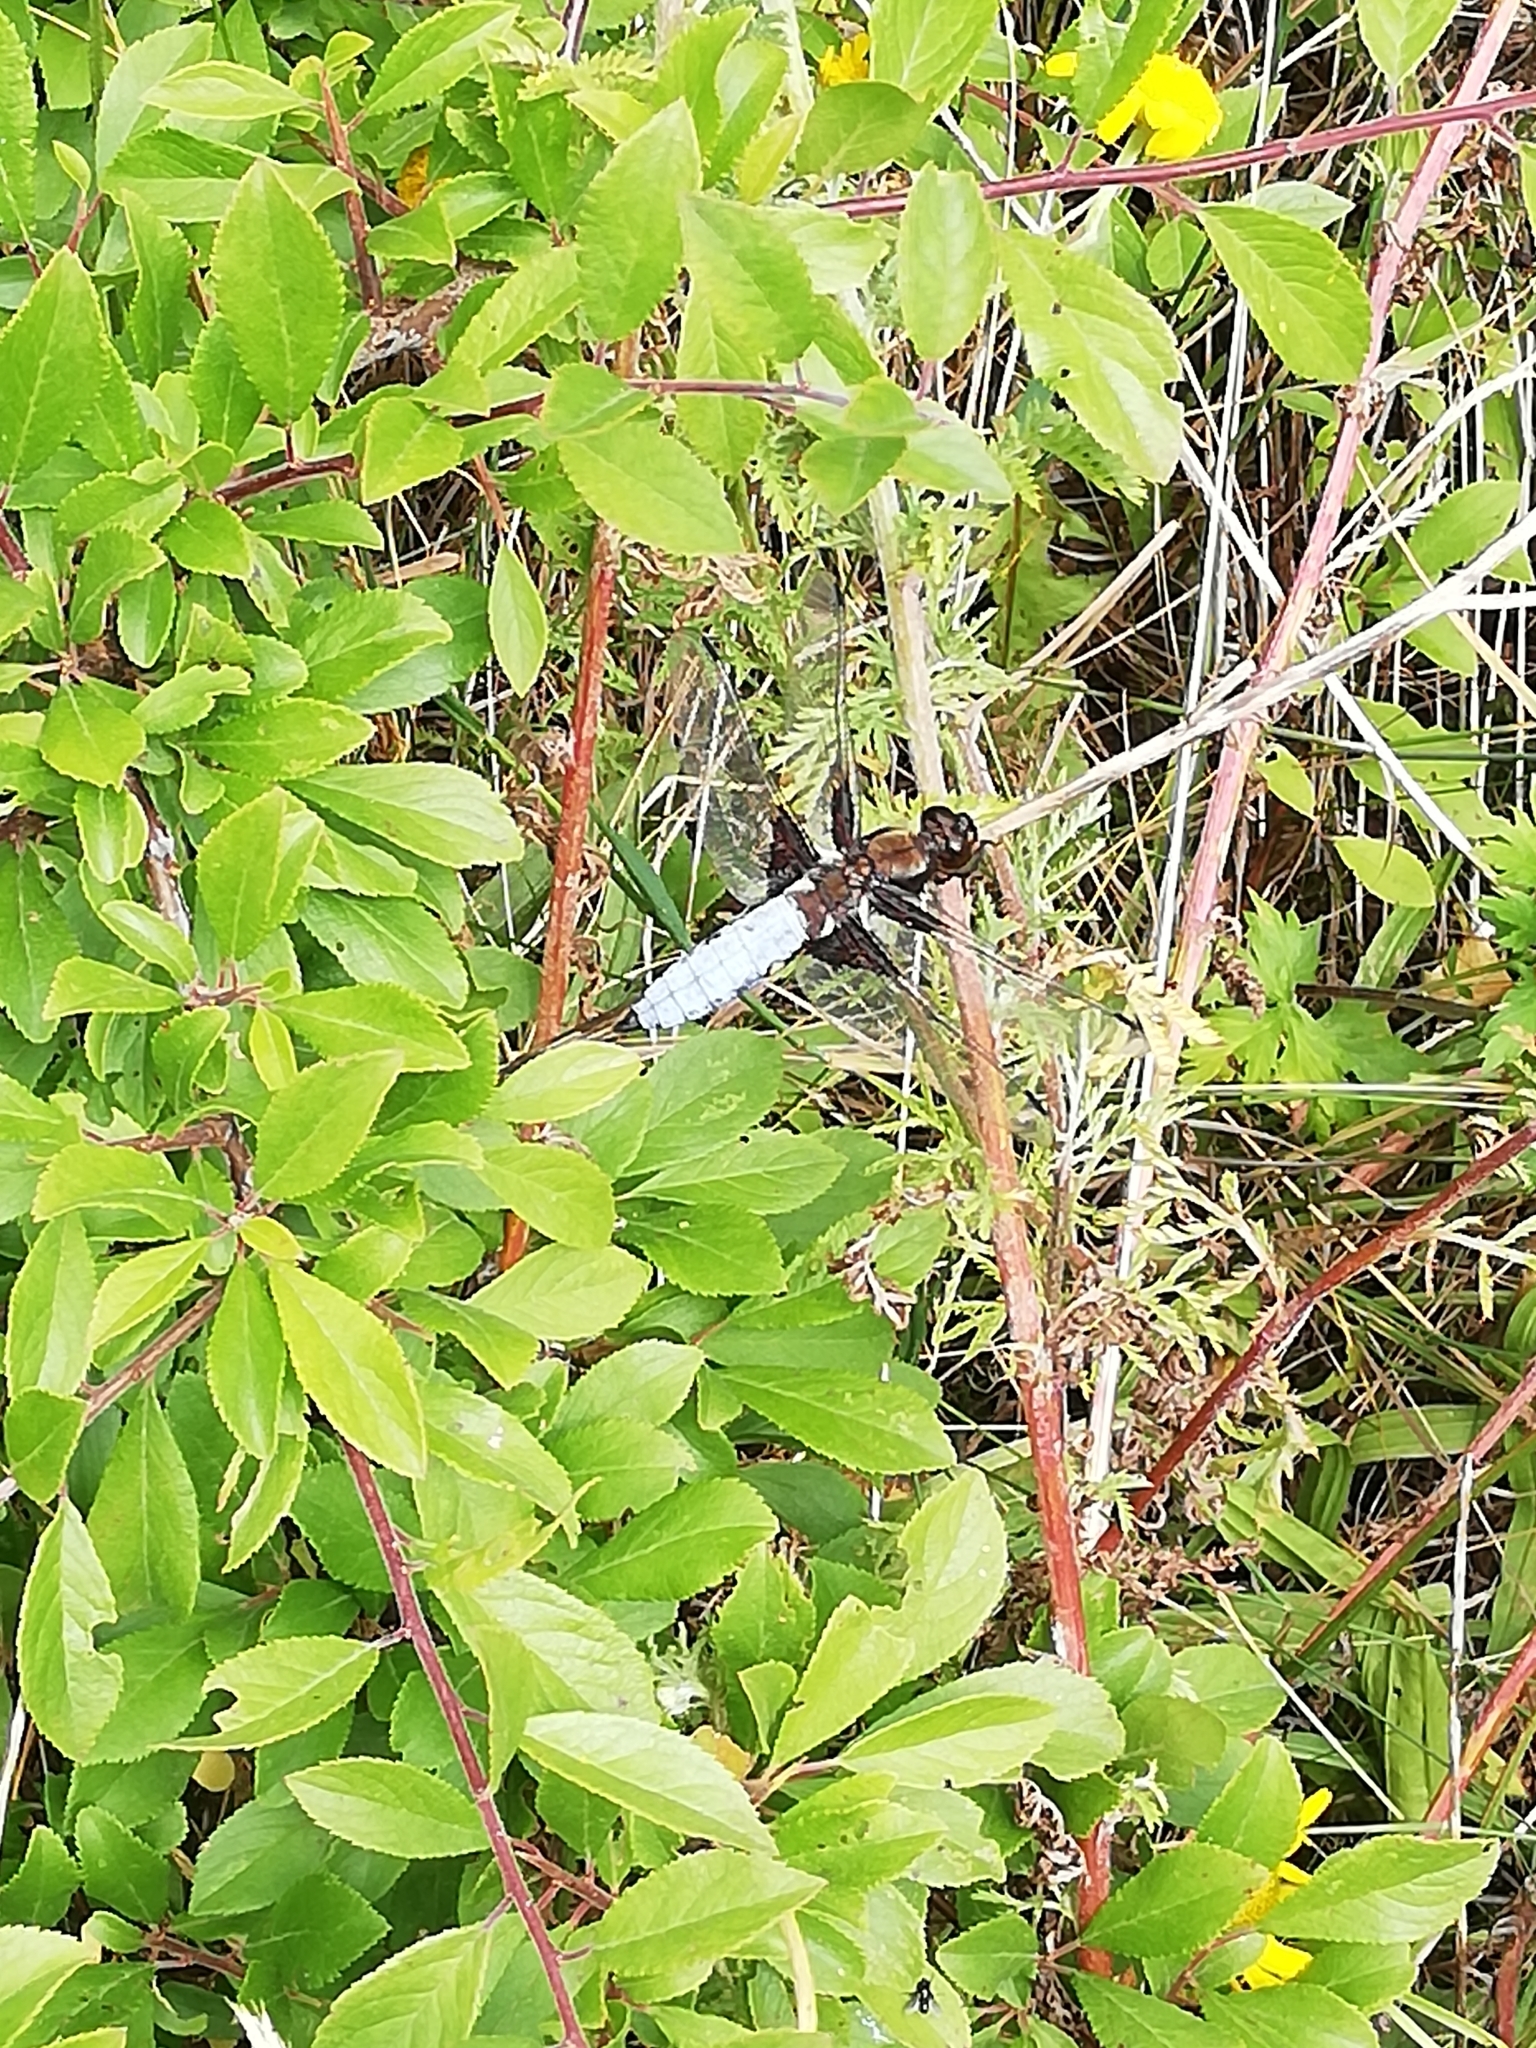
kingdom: Animalia
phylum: Arthropoda
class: Insecta
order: Odonata
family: Libellulidae
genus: Libellula
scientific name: Libellula depressa
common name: Broad-bodied chaser
